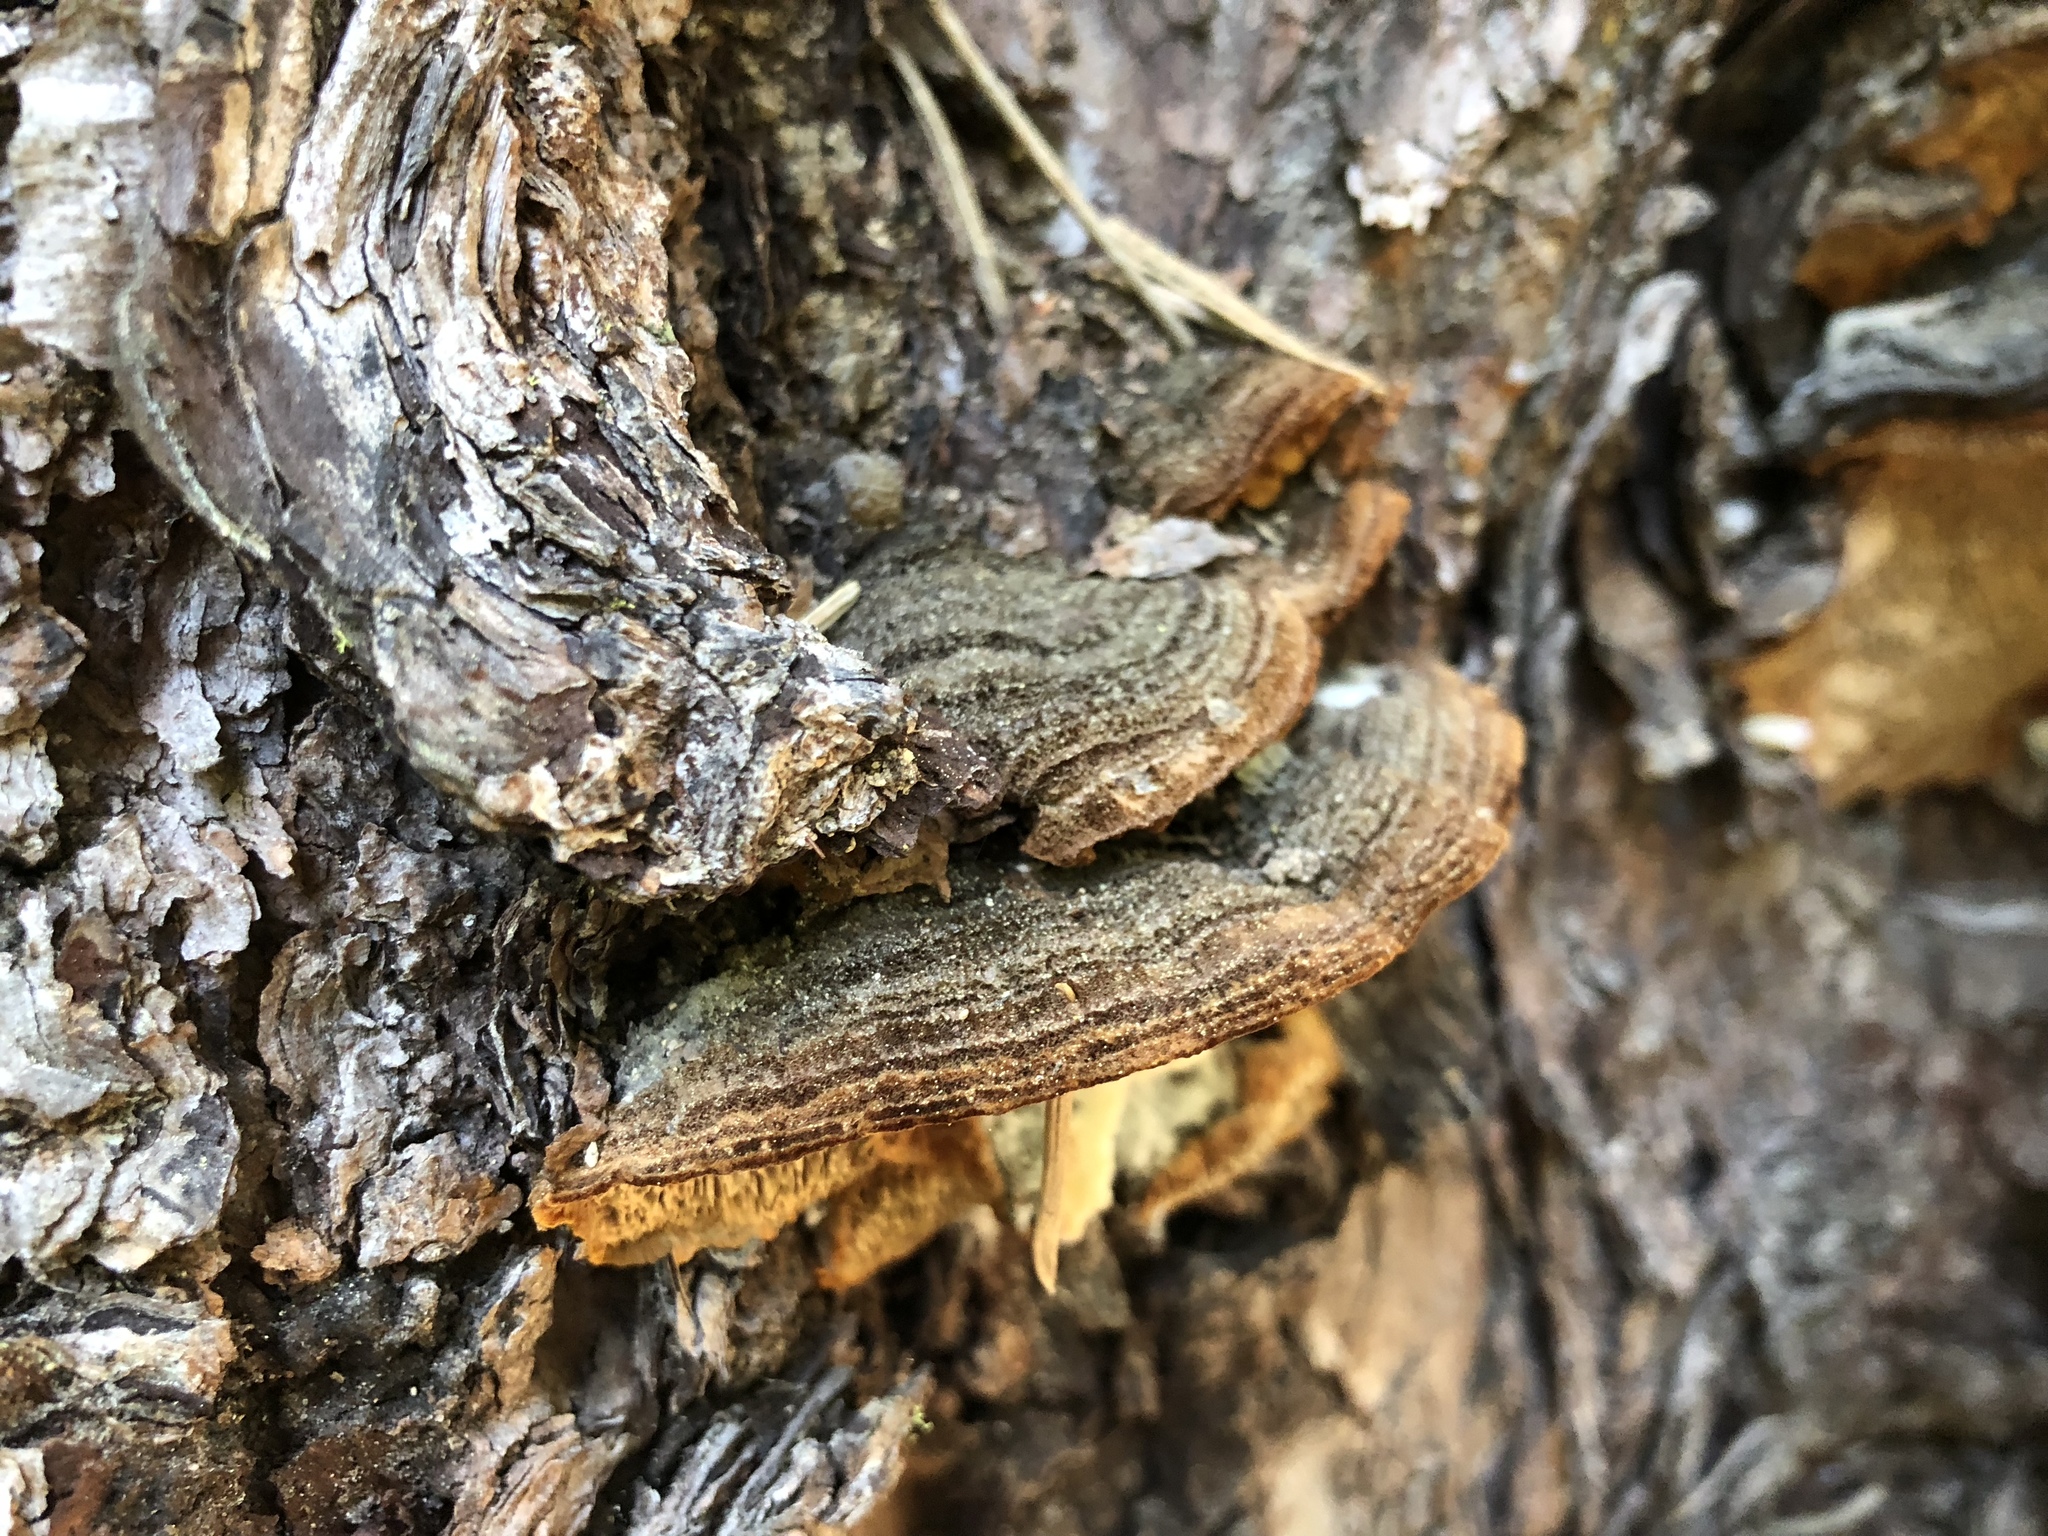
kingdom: Fungi
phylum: Basidiomycota
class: Agaricomycetes
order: Hymenochaetales
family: Hymenochaetaceae
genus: Porodaedalea
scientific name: Porodaedalea pini
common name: Pine bracket
